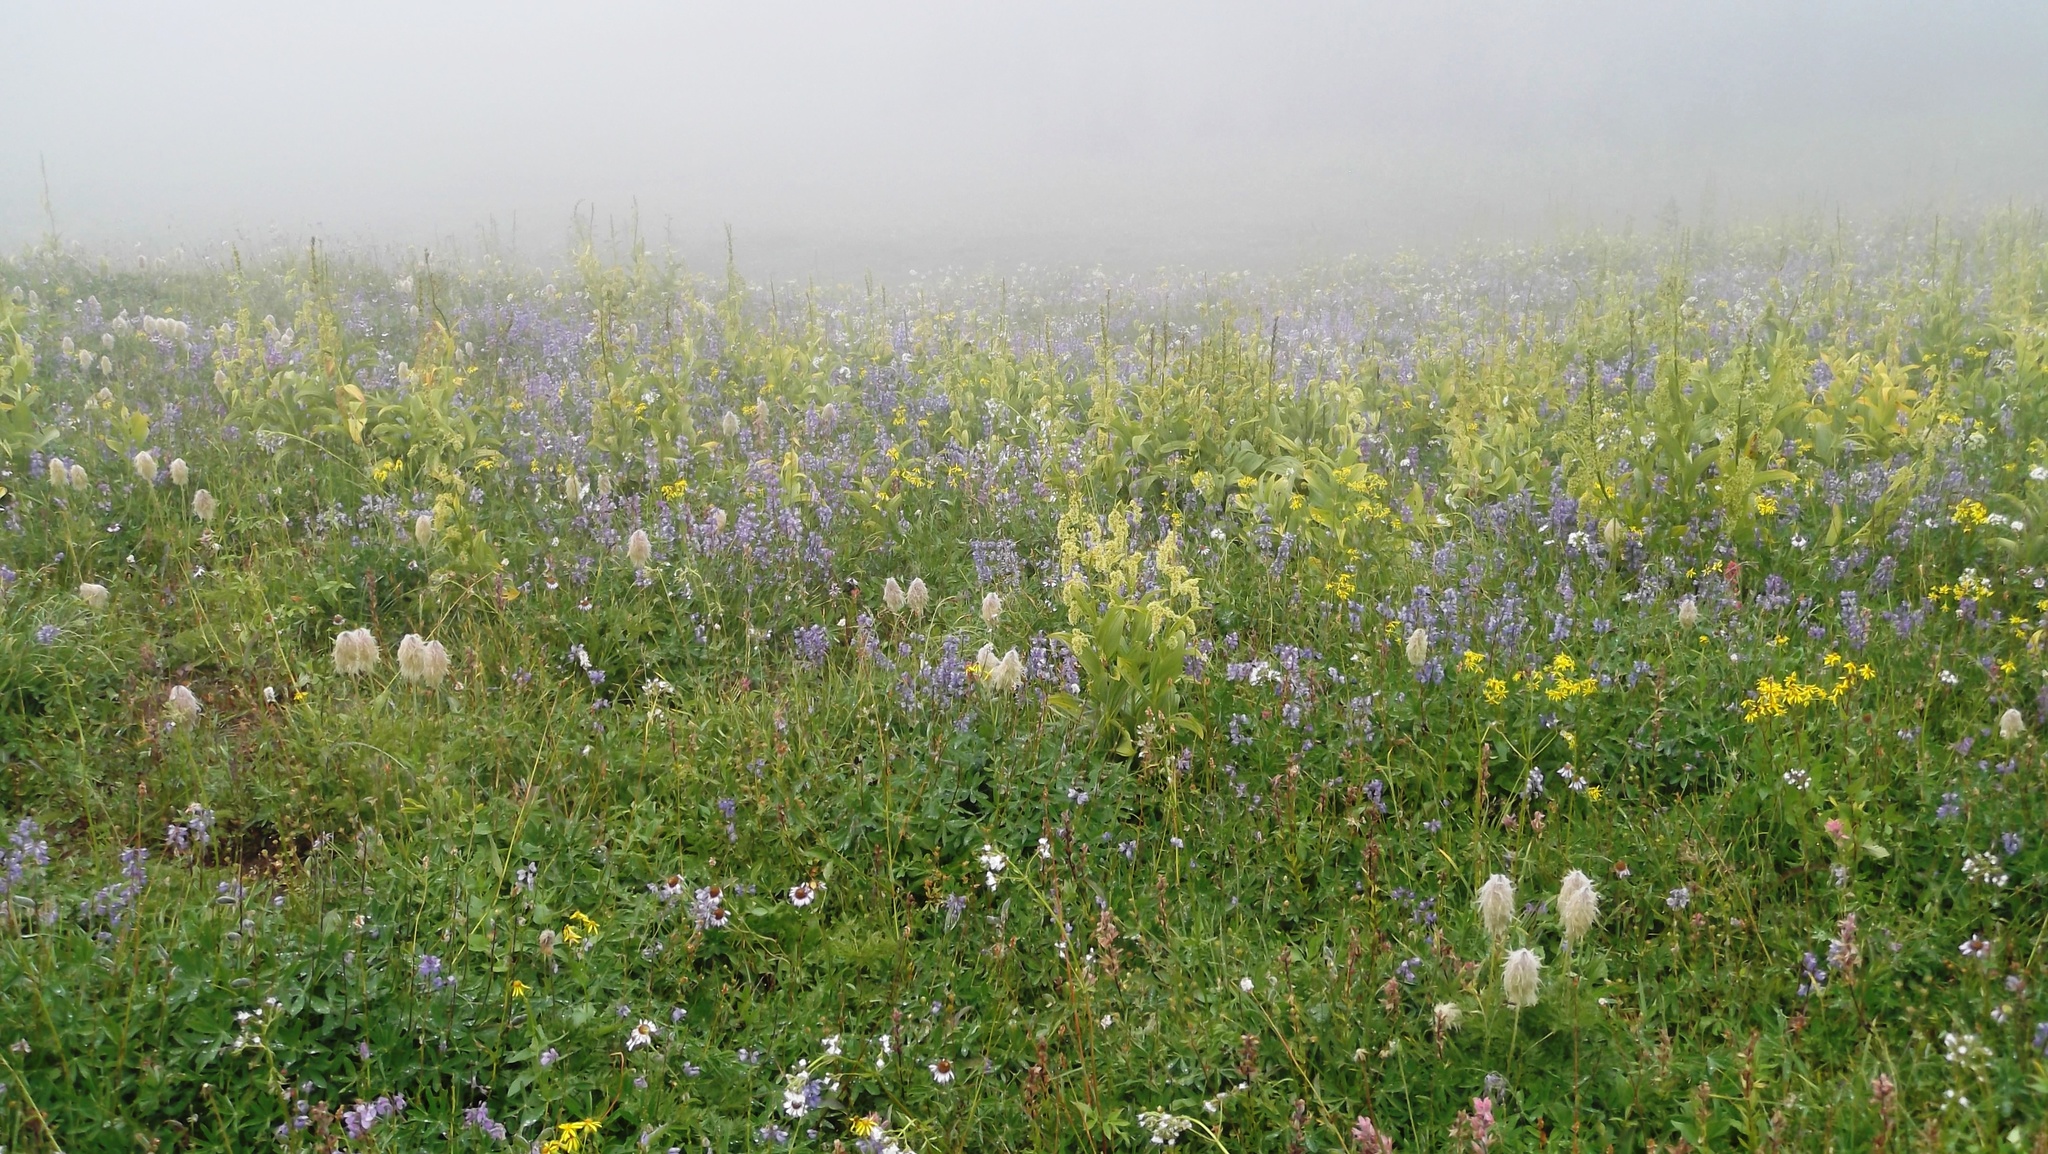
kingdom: Plantae
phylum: Tracheophyta
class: Magnoliopsida
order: Ranunculales
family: Ranunculaceae
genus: Pulsatilla
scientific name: Pulsatilla occidentalis
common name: Mountain pasqueflower
